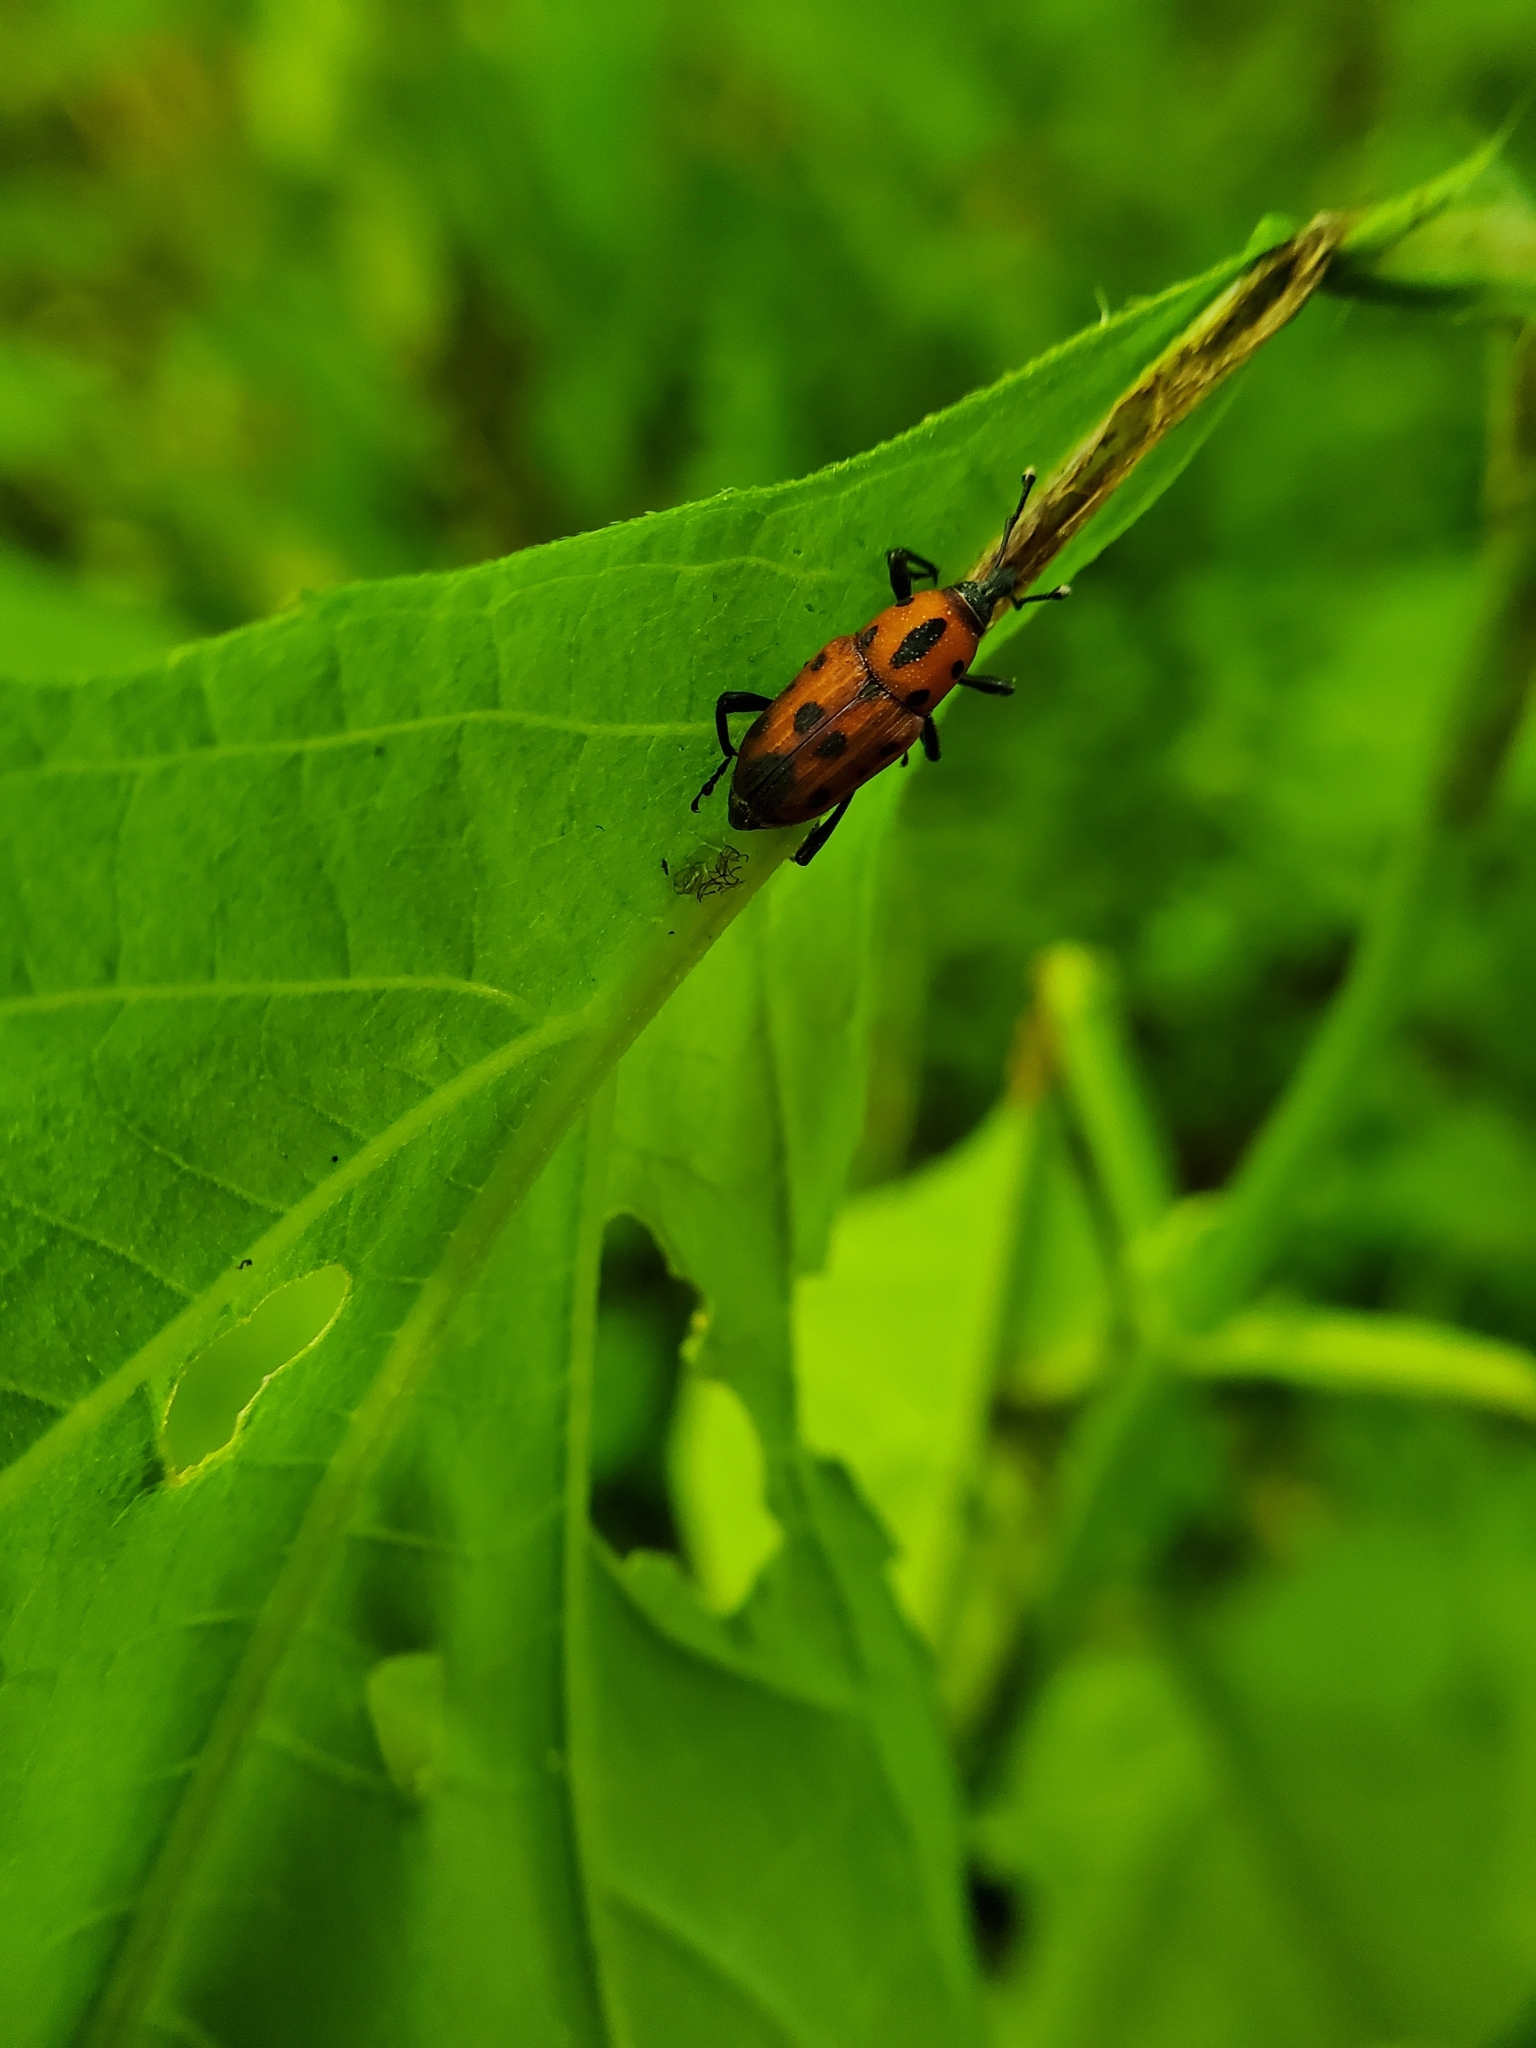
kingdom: Animalia
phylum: Arthropoda
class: Insecta
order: Coleoptera
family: Dryophthoridae
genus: Rhodobaenus
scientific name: Rhodobaenus quinquepunctatus
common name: Cocklebur weevil
